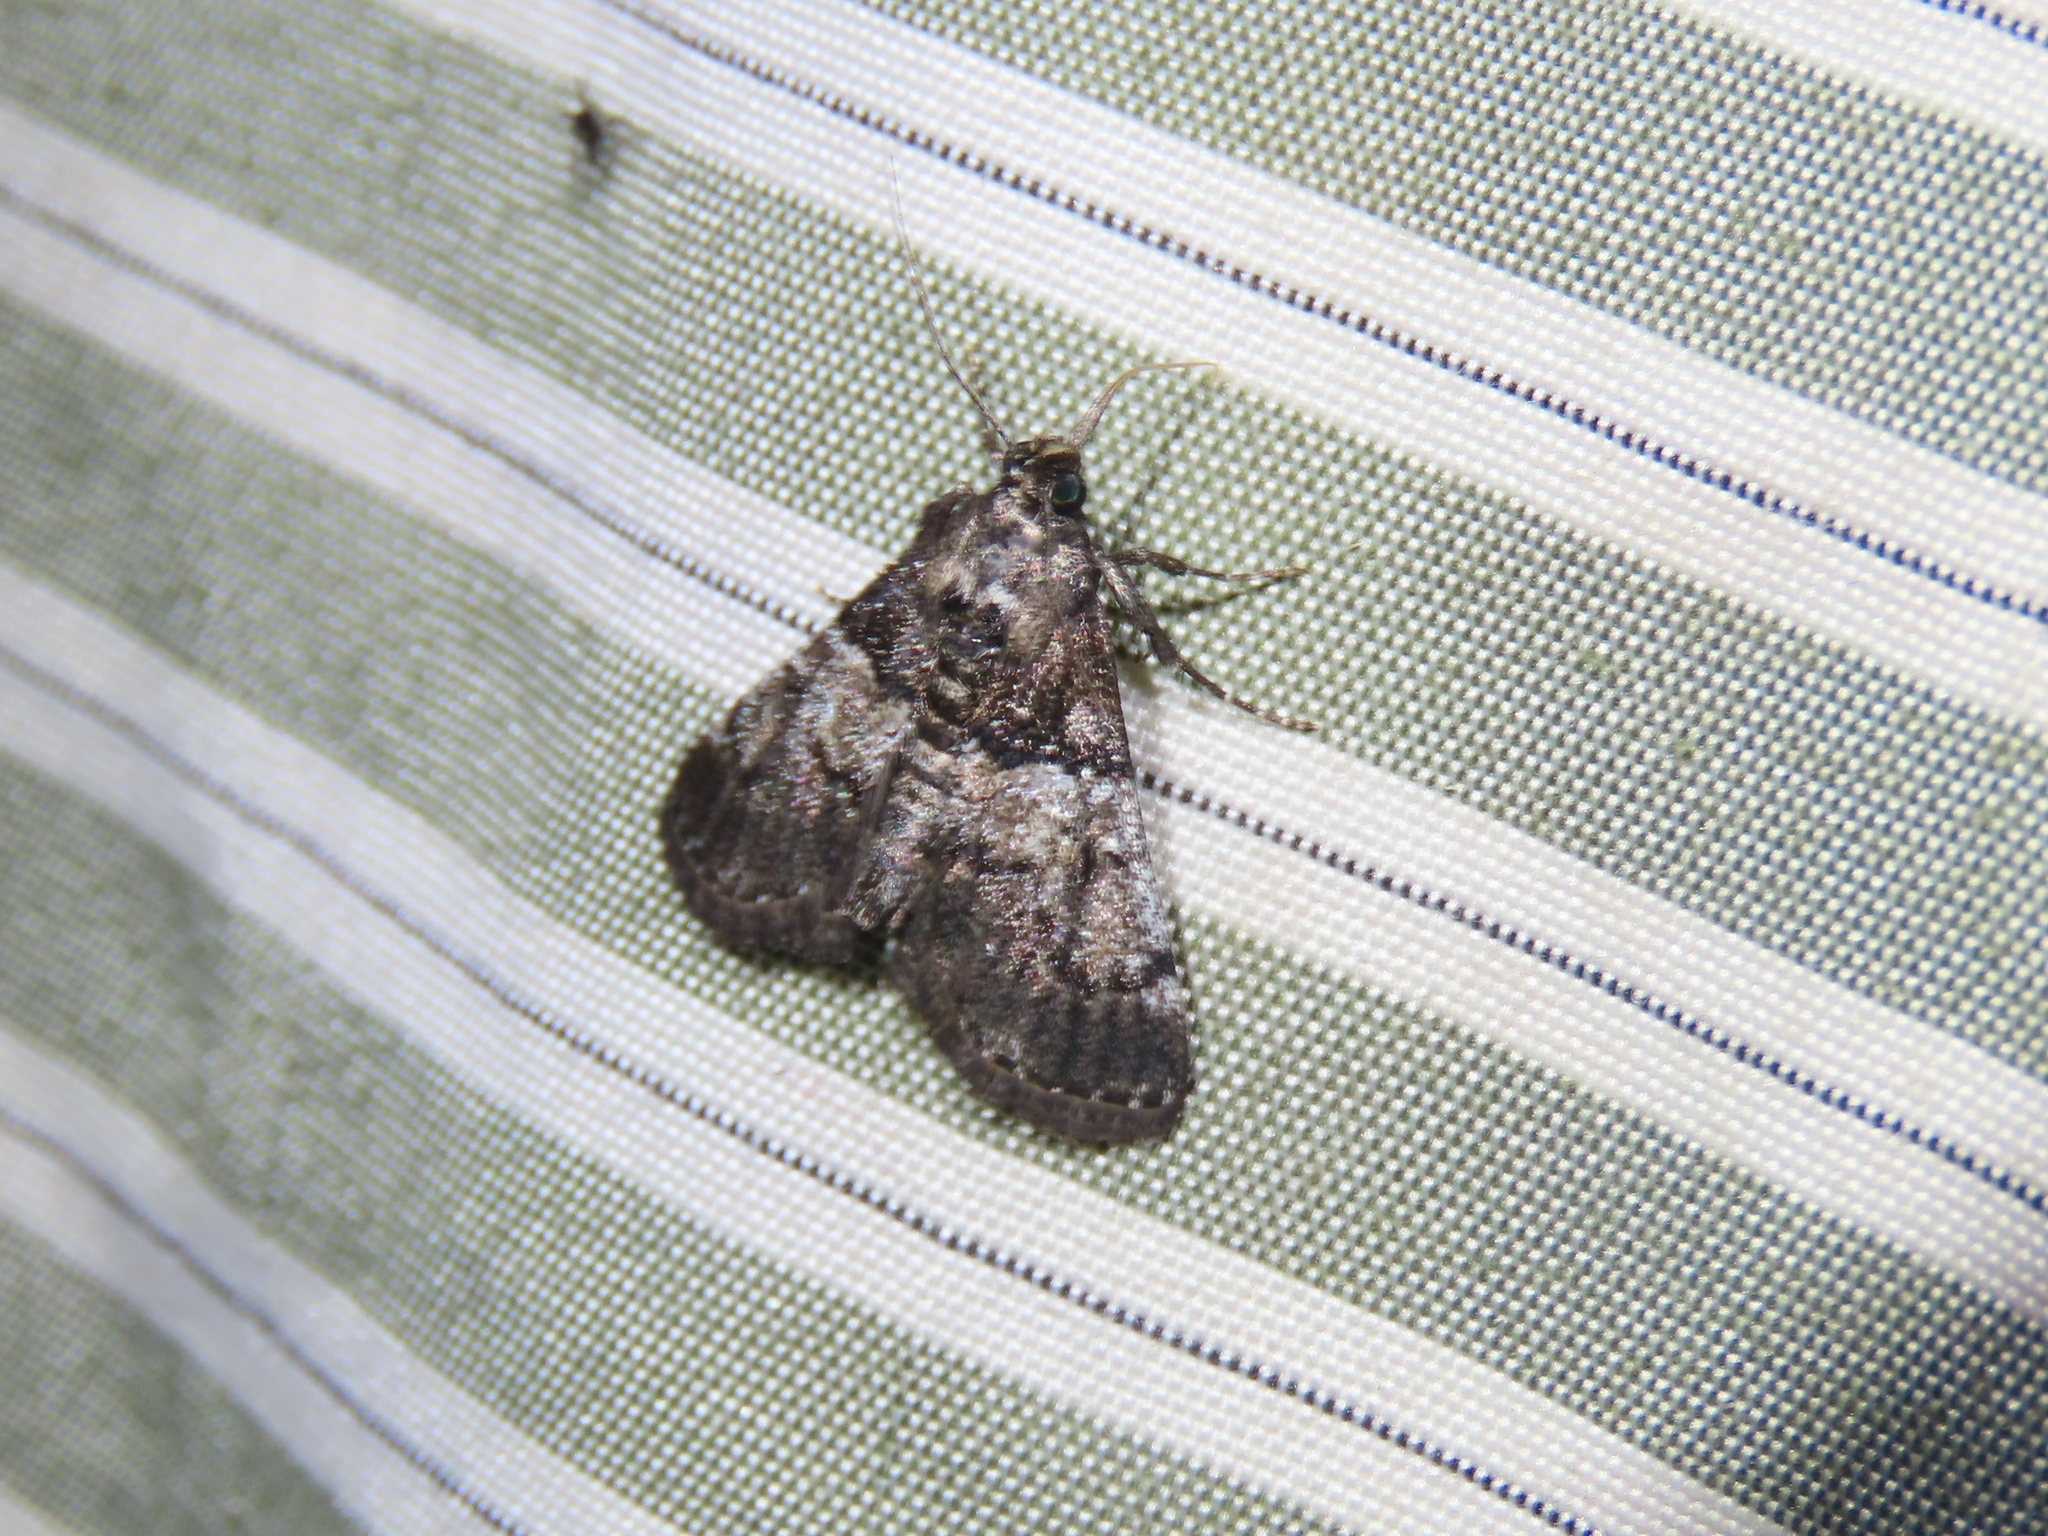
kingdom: Animalia
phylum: Arthropoda
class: Insecta
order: Lepidoptera
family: Pyralidae
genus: Macalla
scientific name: Macalla zelleri
